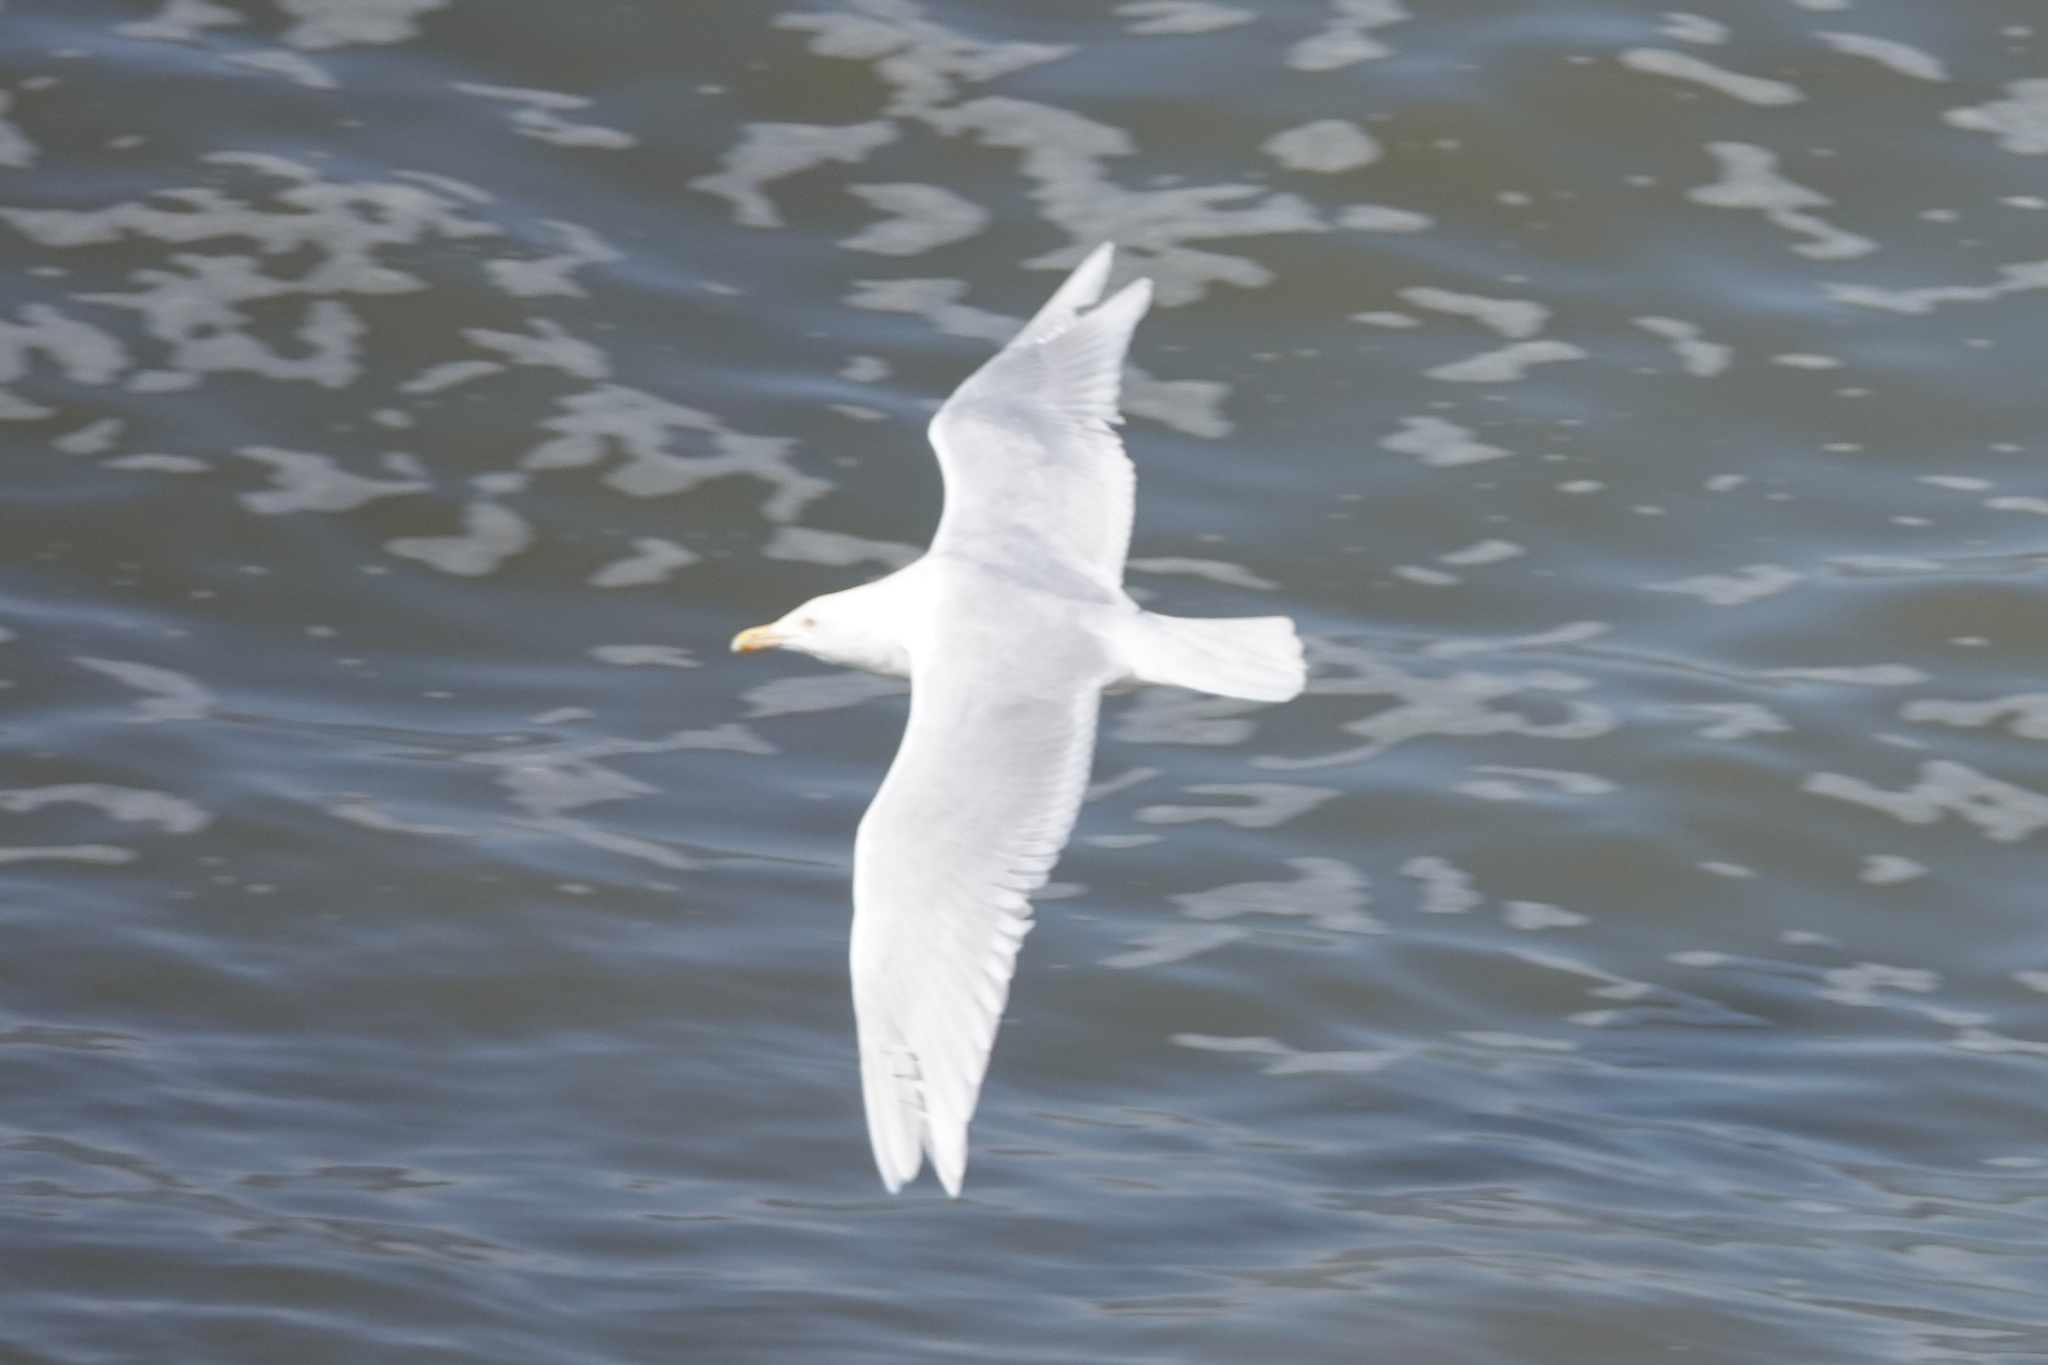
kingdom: Animalia
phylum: Chordata
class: Aves
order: Charadriiformes
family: Laridae
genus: Larus
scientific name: Larus hyperboreus
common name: Glaucous gull
